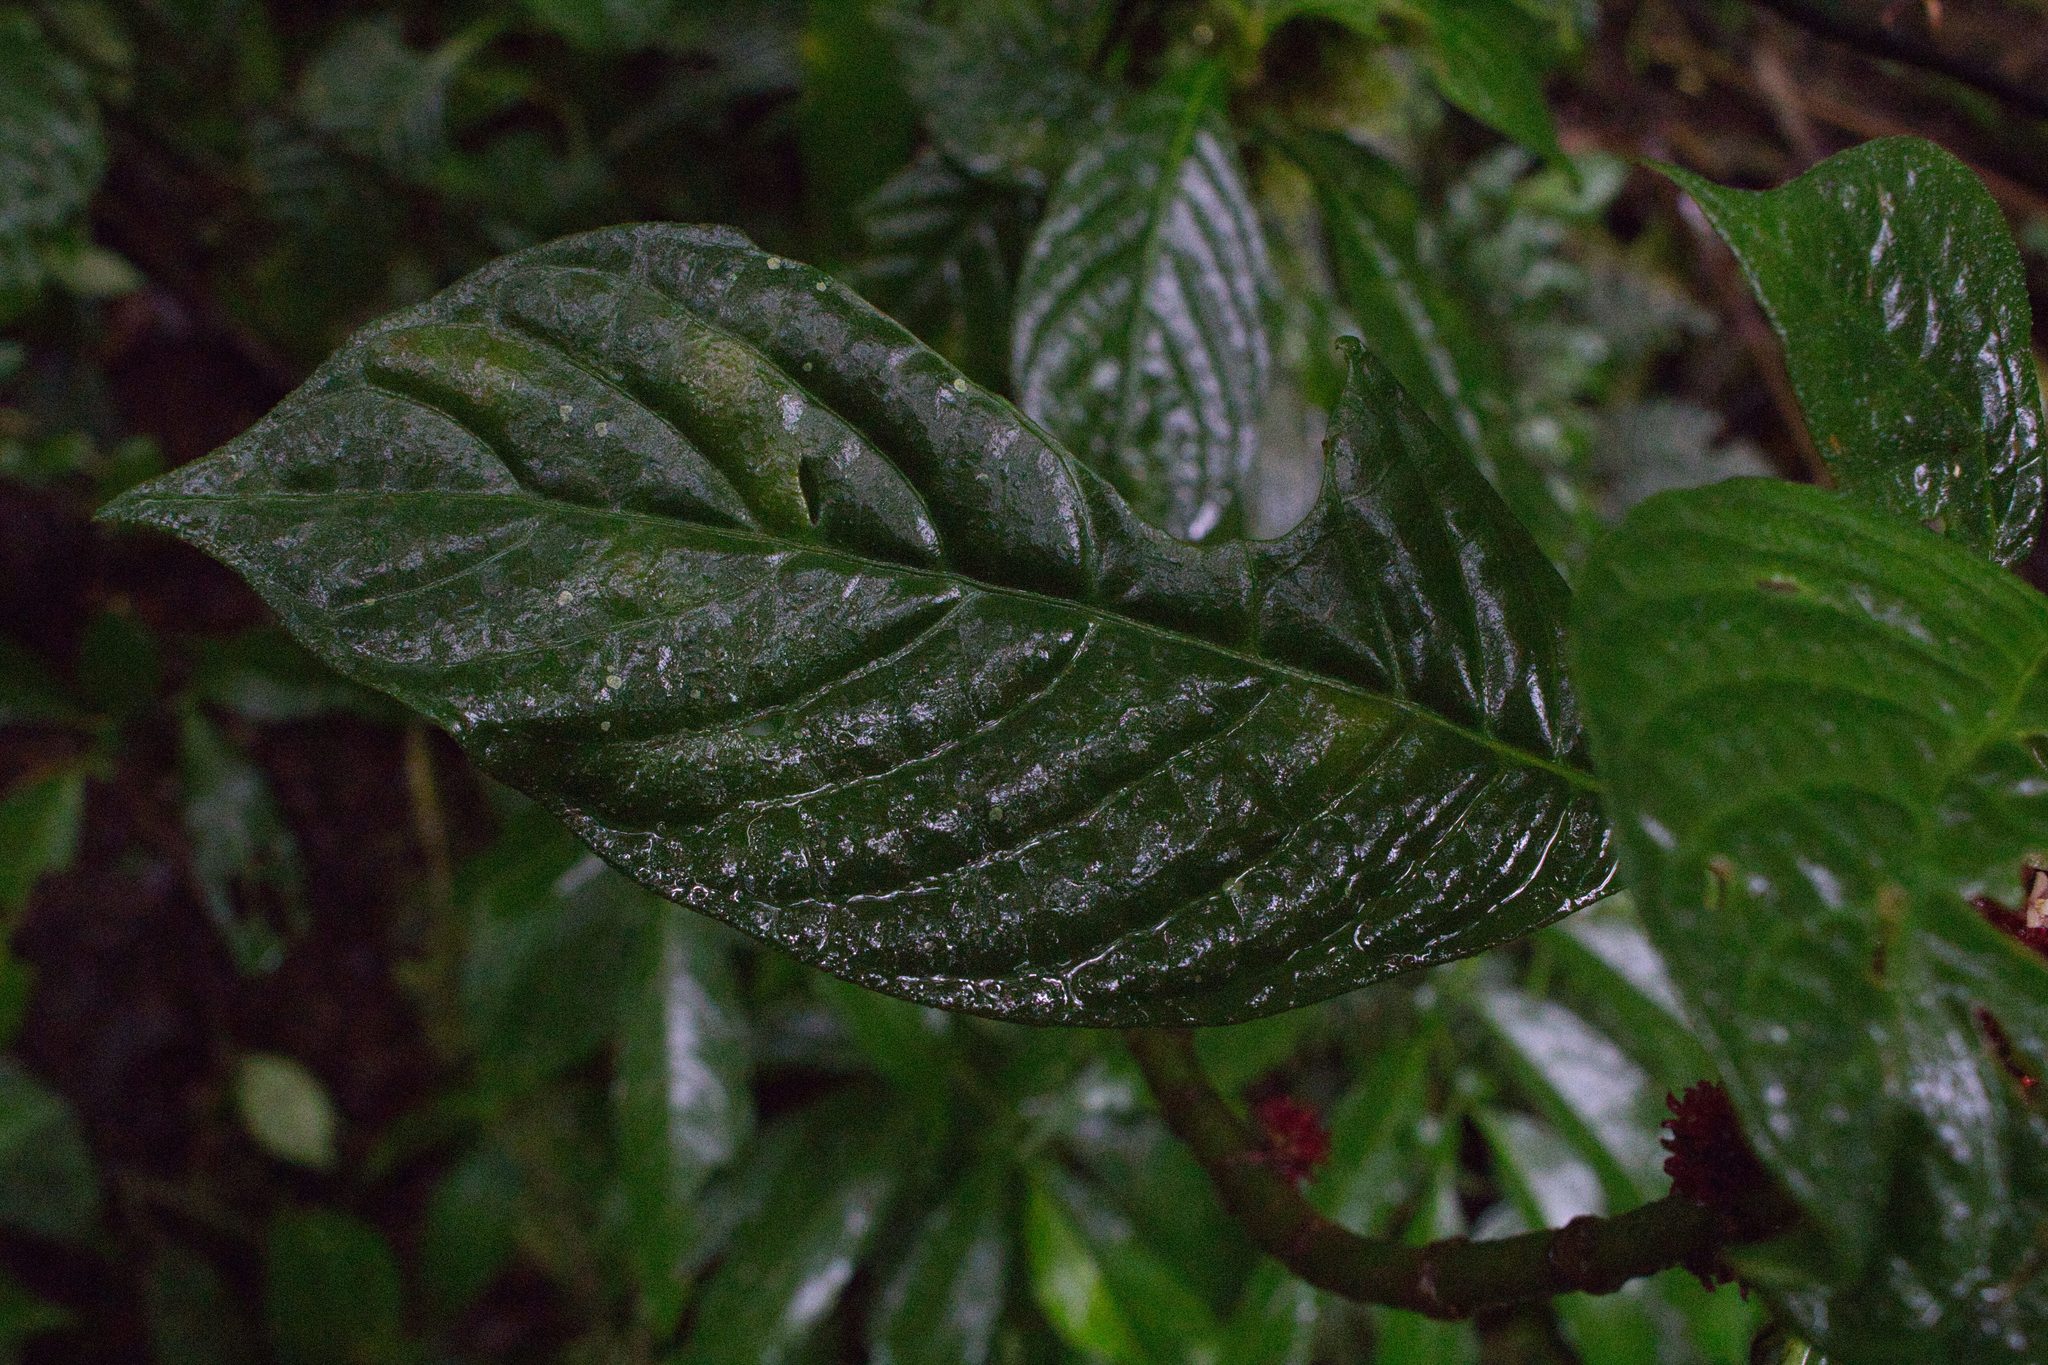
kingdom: Plantae
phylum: Tracheophyta
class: Magnoliopsida
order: Gentianales
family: Rubiaceae
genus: Hoffmannia
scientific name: Hoffmannia congesta
